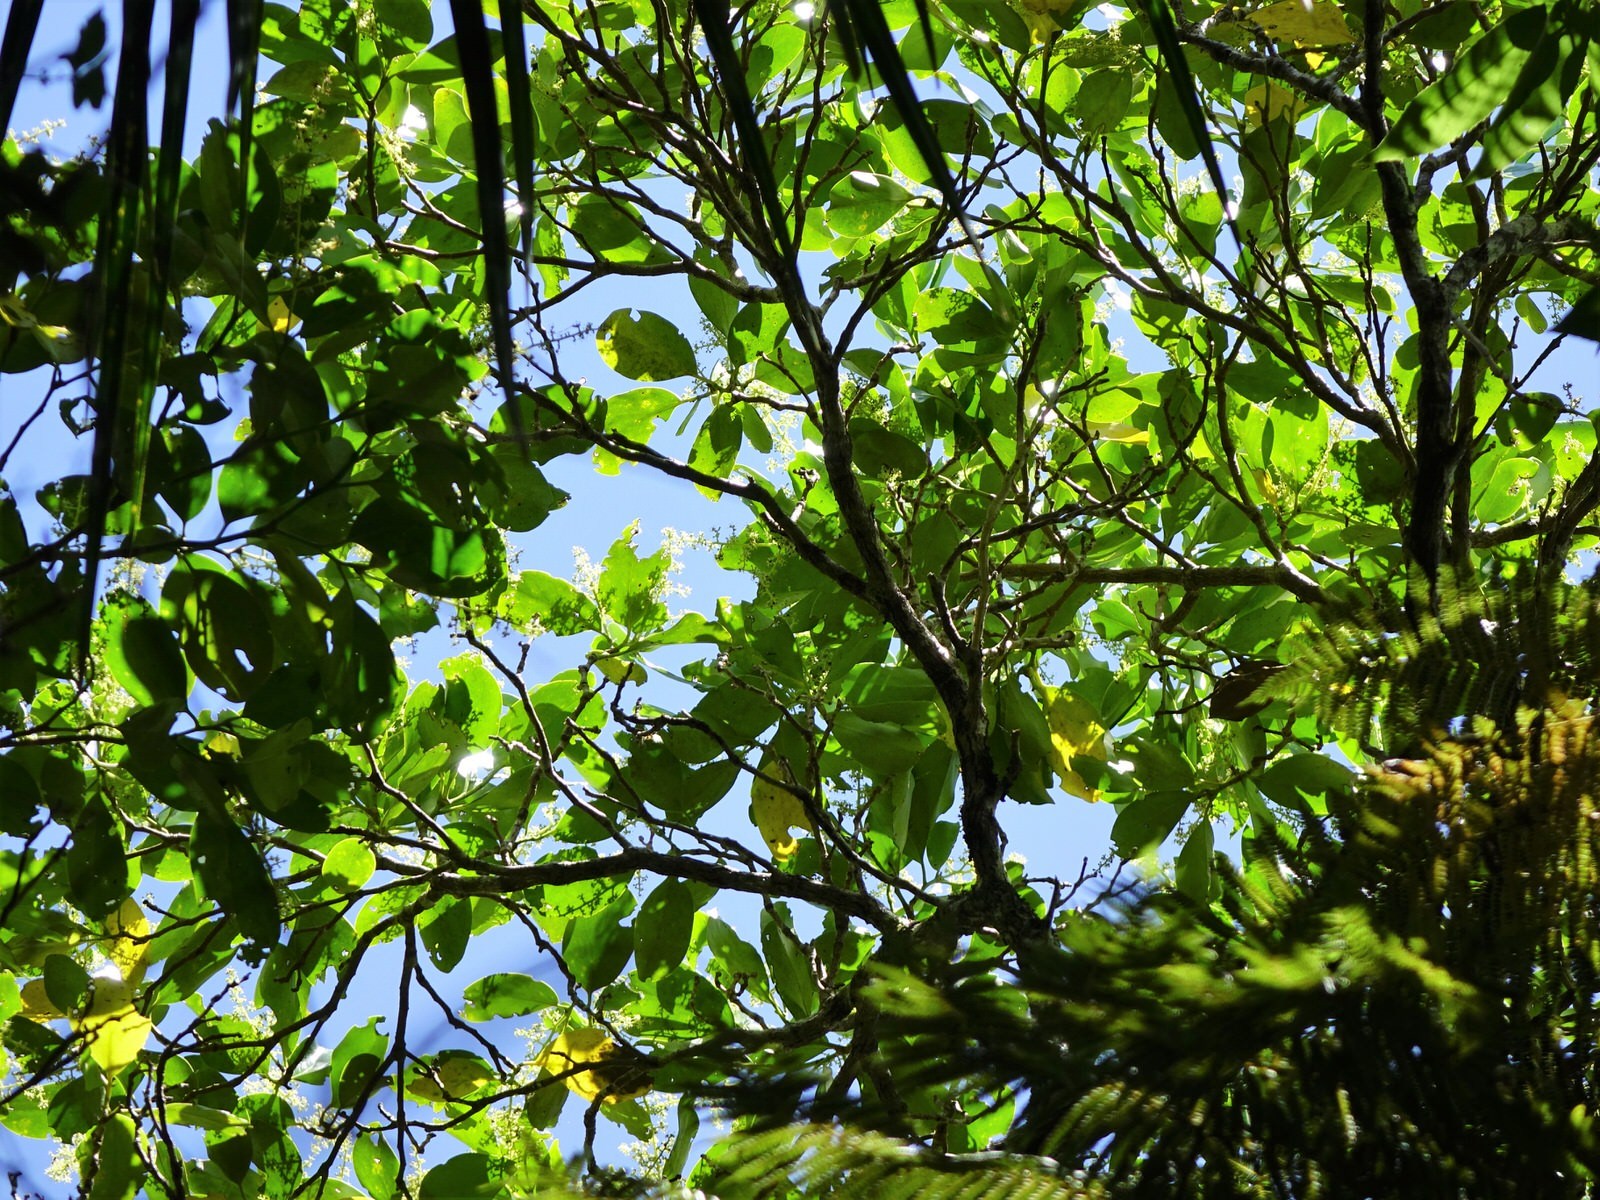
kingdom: Plantae
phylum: Tracheophyta
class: Magnoliopsida
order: Apiales
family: Griseliniaceae
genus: Griselinia
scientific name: Griselinia lucida
